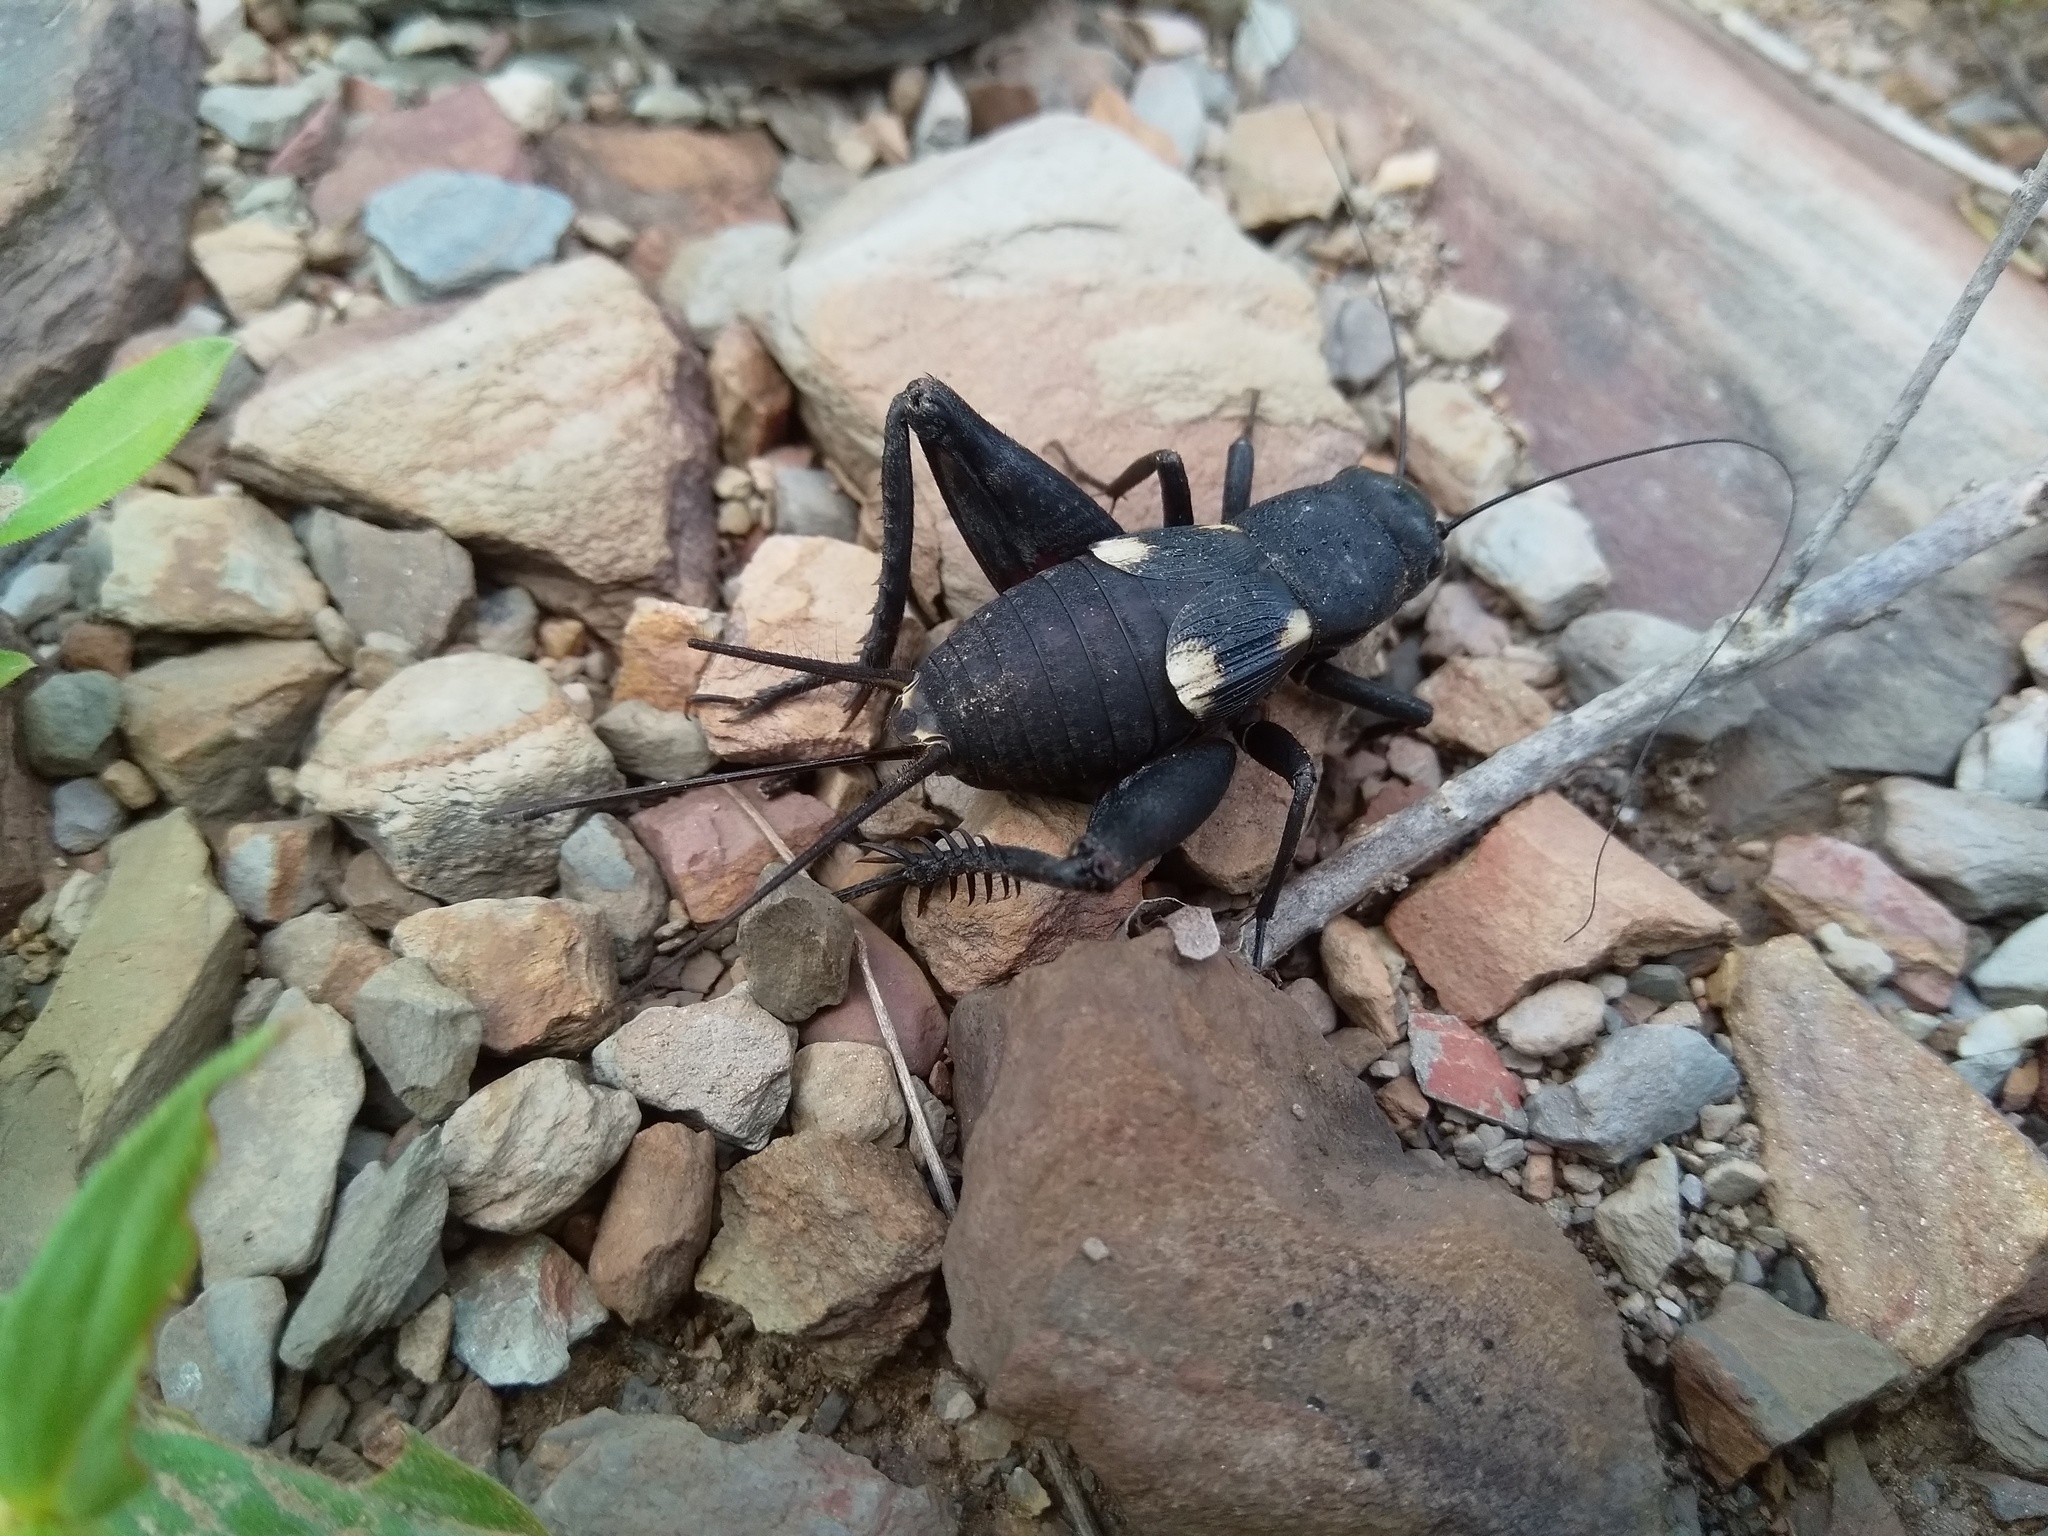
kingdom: Animalia
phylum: Arthropoda
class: Insecta
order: Orthoptera
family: Gryllidae
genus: Gryllus
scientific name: Gryllus quadrimaculatus
